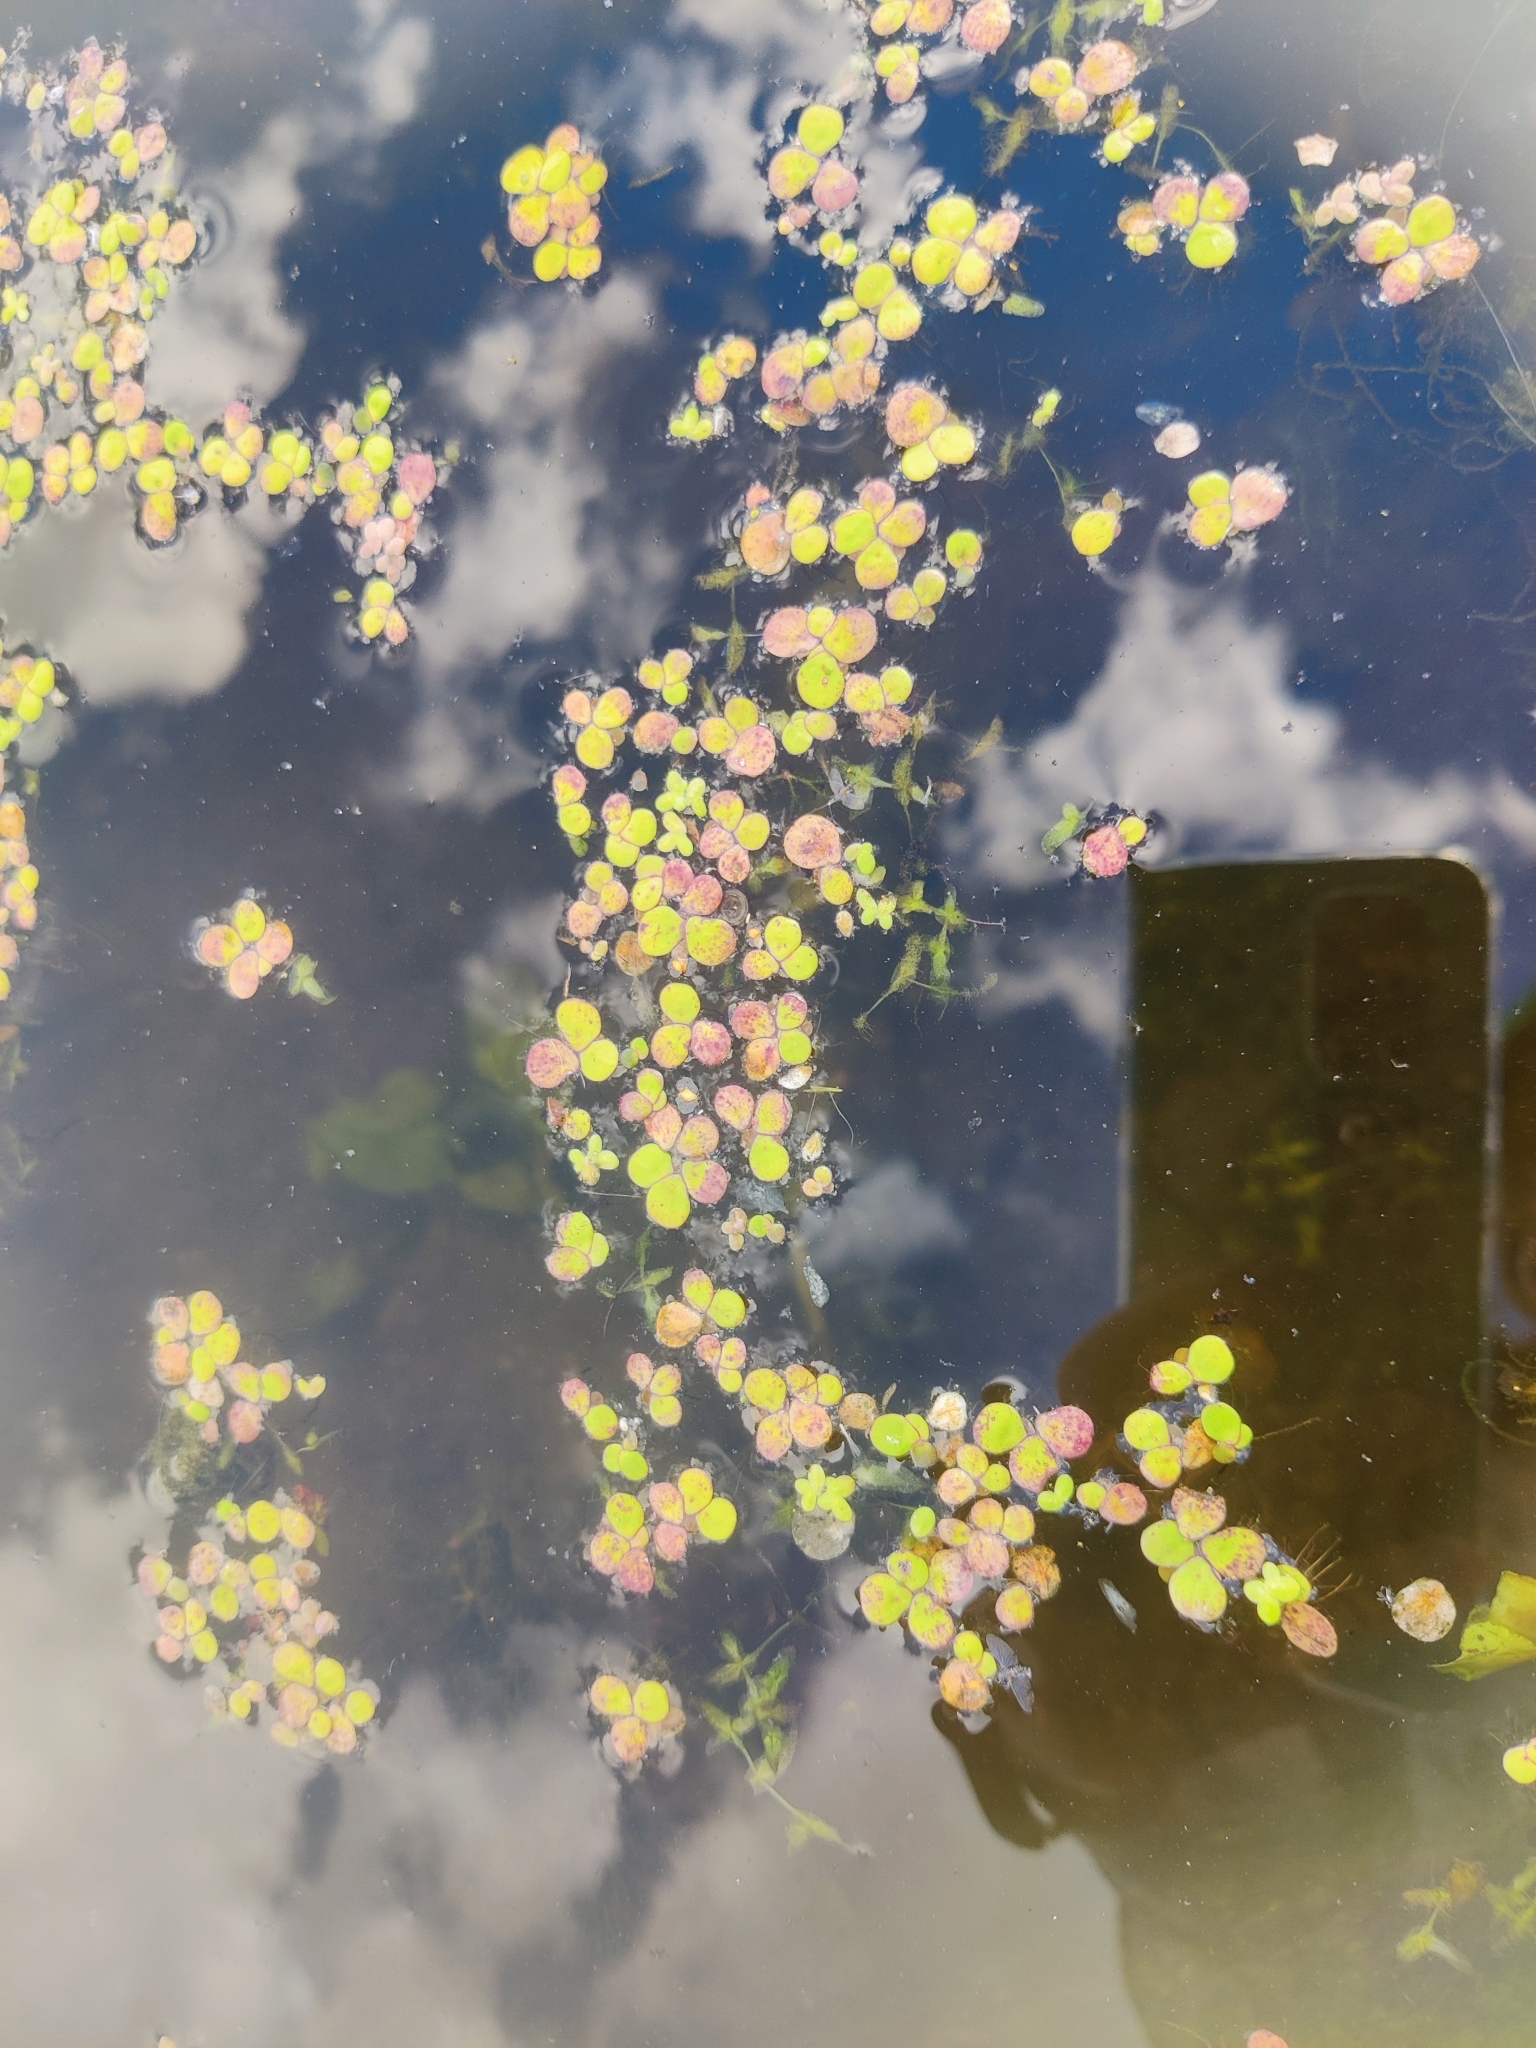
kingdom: Plantae
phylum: Tracheophyta
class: Liliopsida
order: Alismatales
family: Araceae
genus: Spirodela
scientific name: Spirodela polyrhiza
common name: Great duckweed
